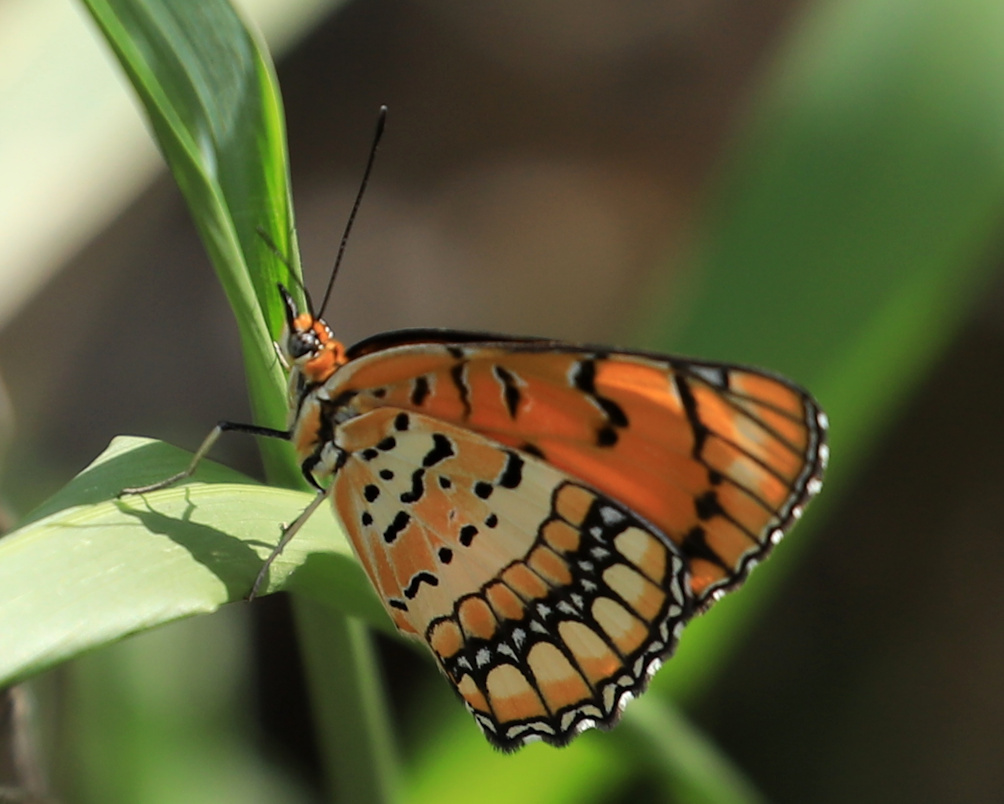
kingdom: Animalia
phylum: Arthropoda
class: Insecta
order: Lepidoptera
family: Nymphalidae
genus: Byblia
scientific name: Byblia ilithyia
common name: Spotted joker
